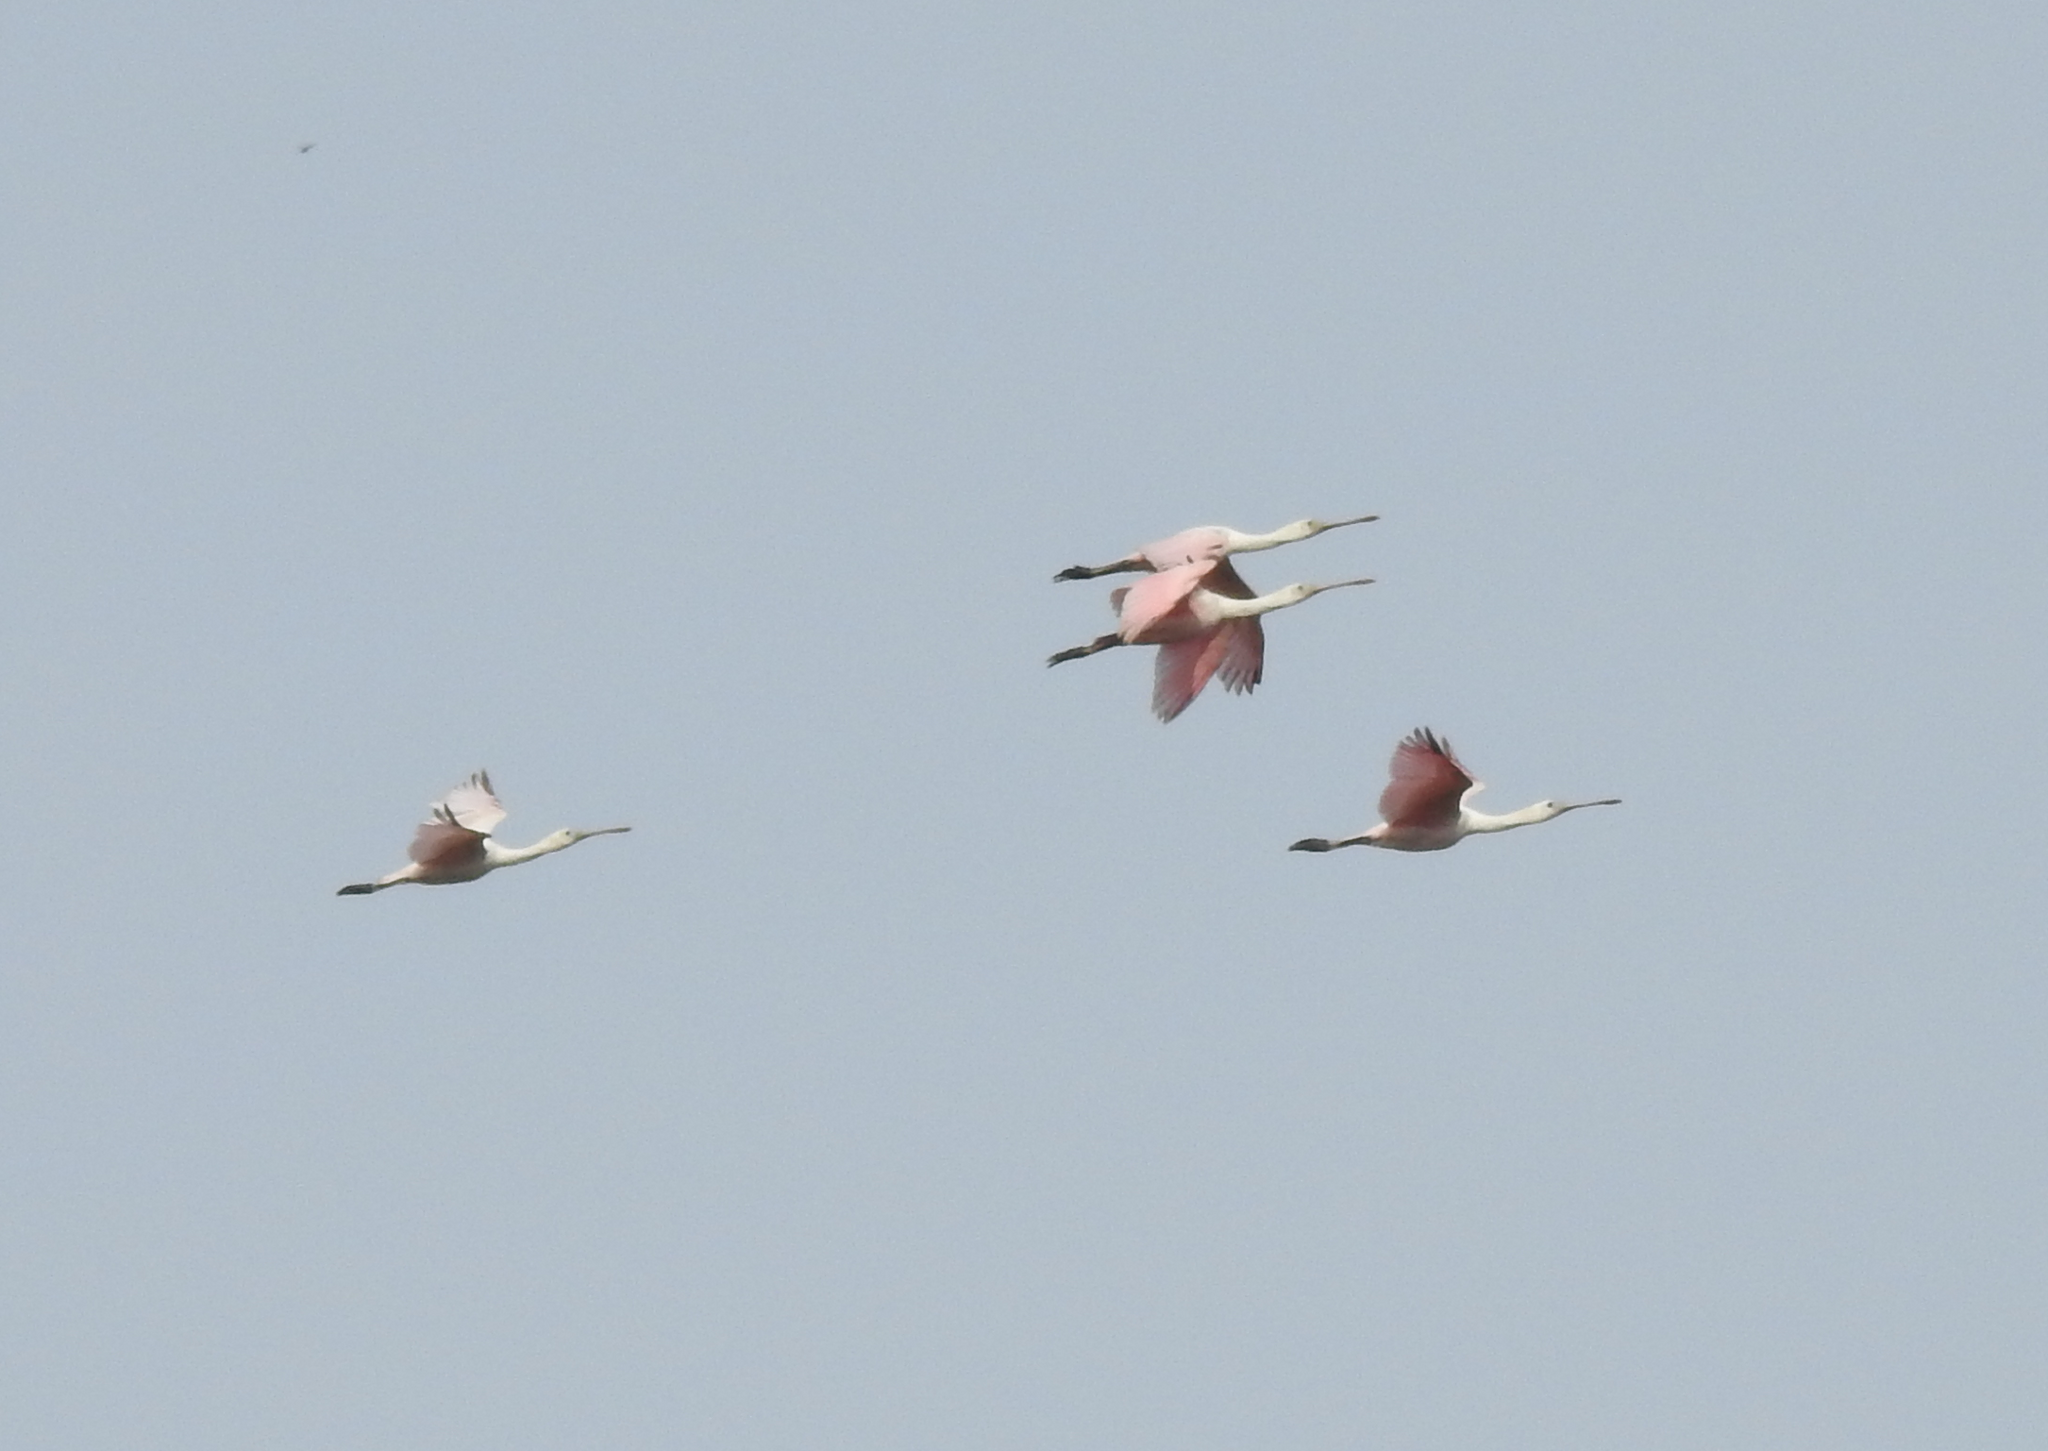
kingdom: Animalia
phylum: Chordata
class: Aves
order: Pelecaniformes
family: Threskiornithidae
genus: Platalea
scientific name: Platalea ajaja
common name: Roseate spoonbill
